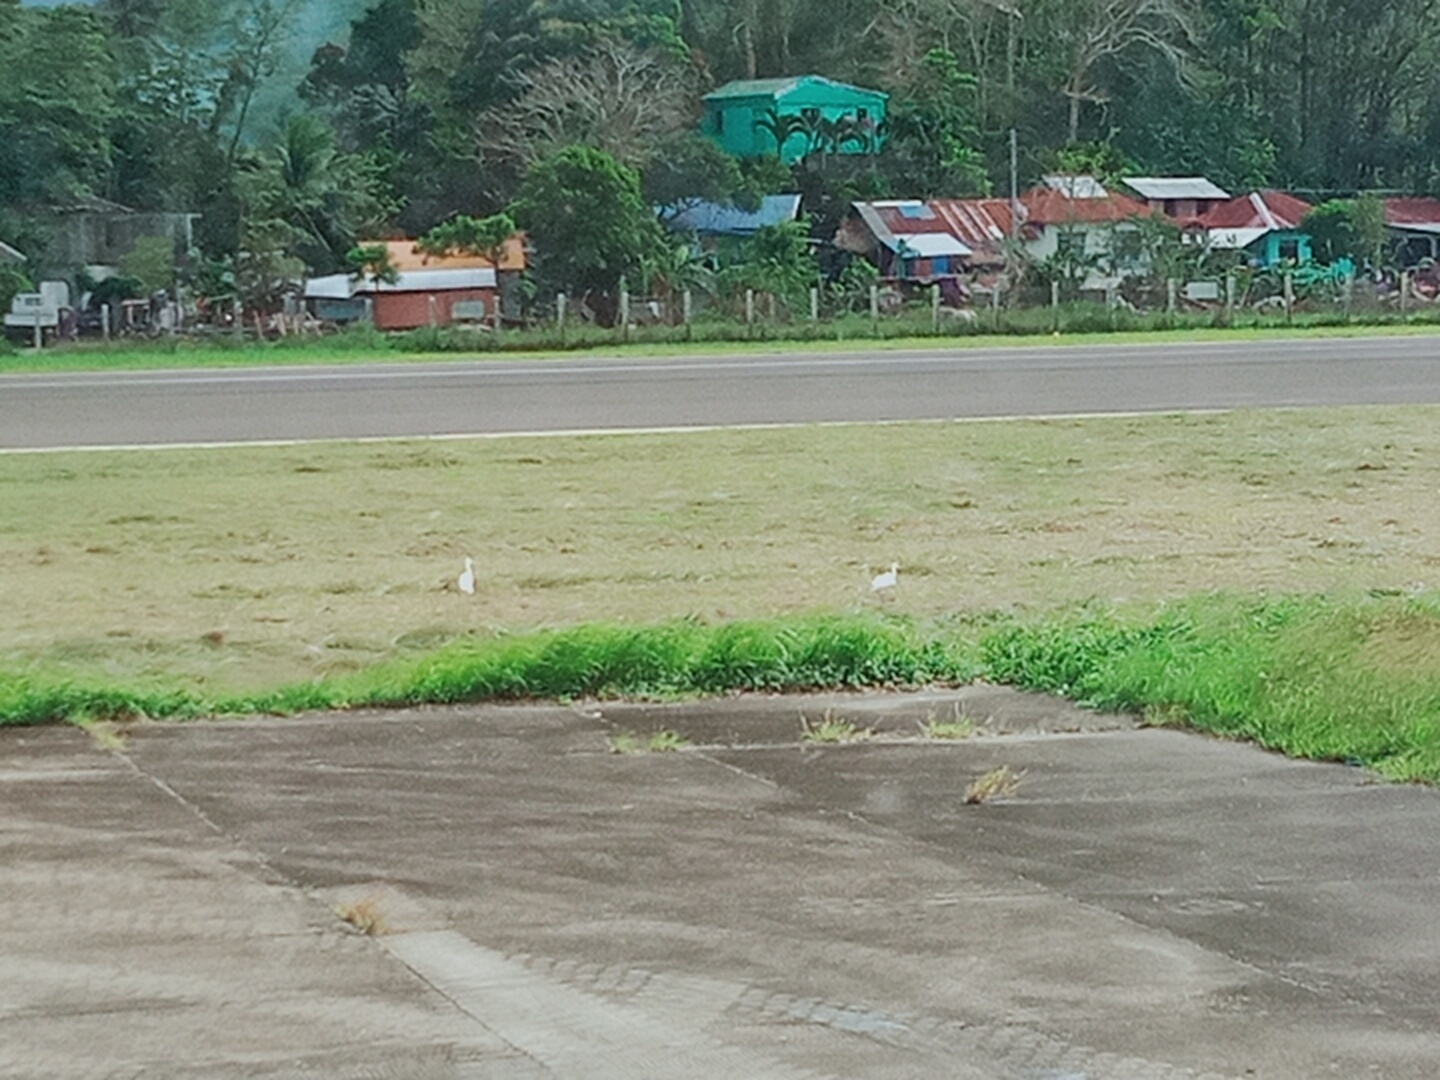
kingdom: Animalia
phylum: Chordata
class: Aves
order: Pelecaniformes
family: Ardeidae
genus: Bubulcus
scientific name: Bubulcus coromandus
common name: Eastern cattle egret
